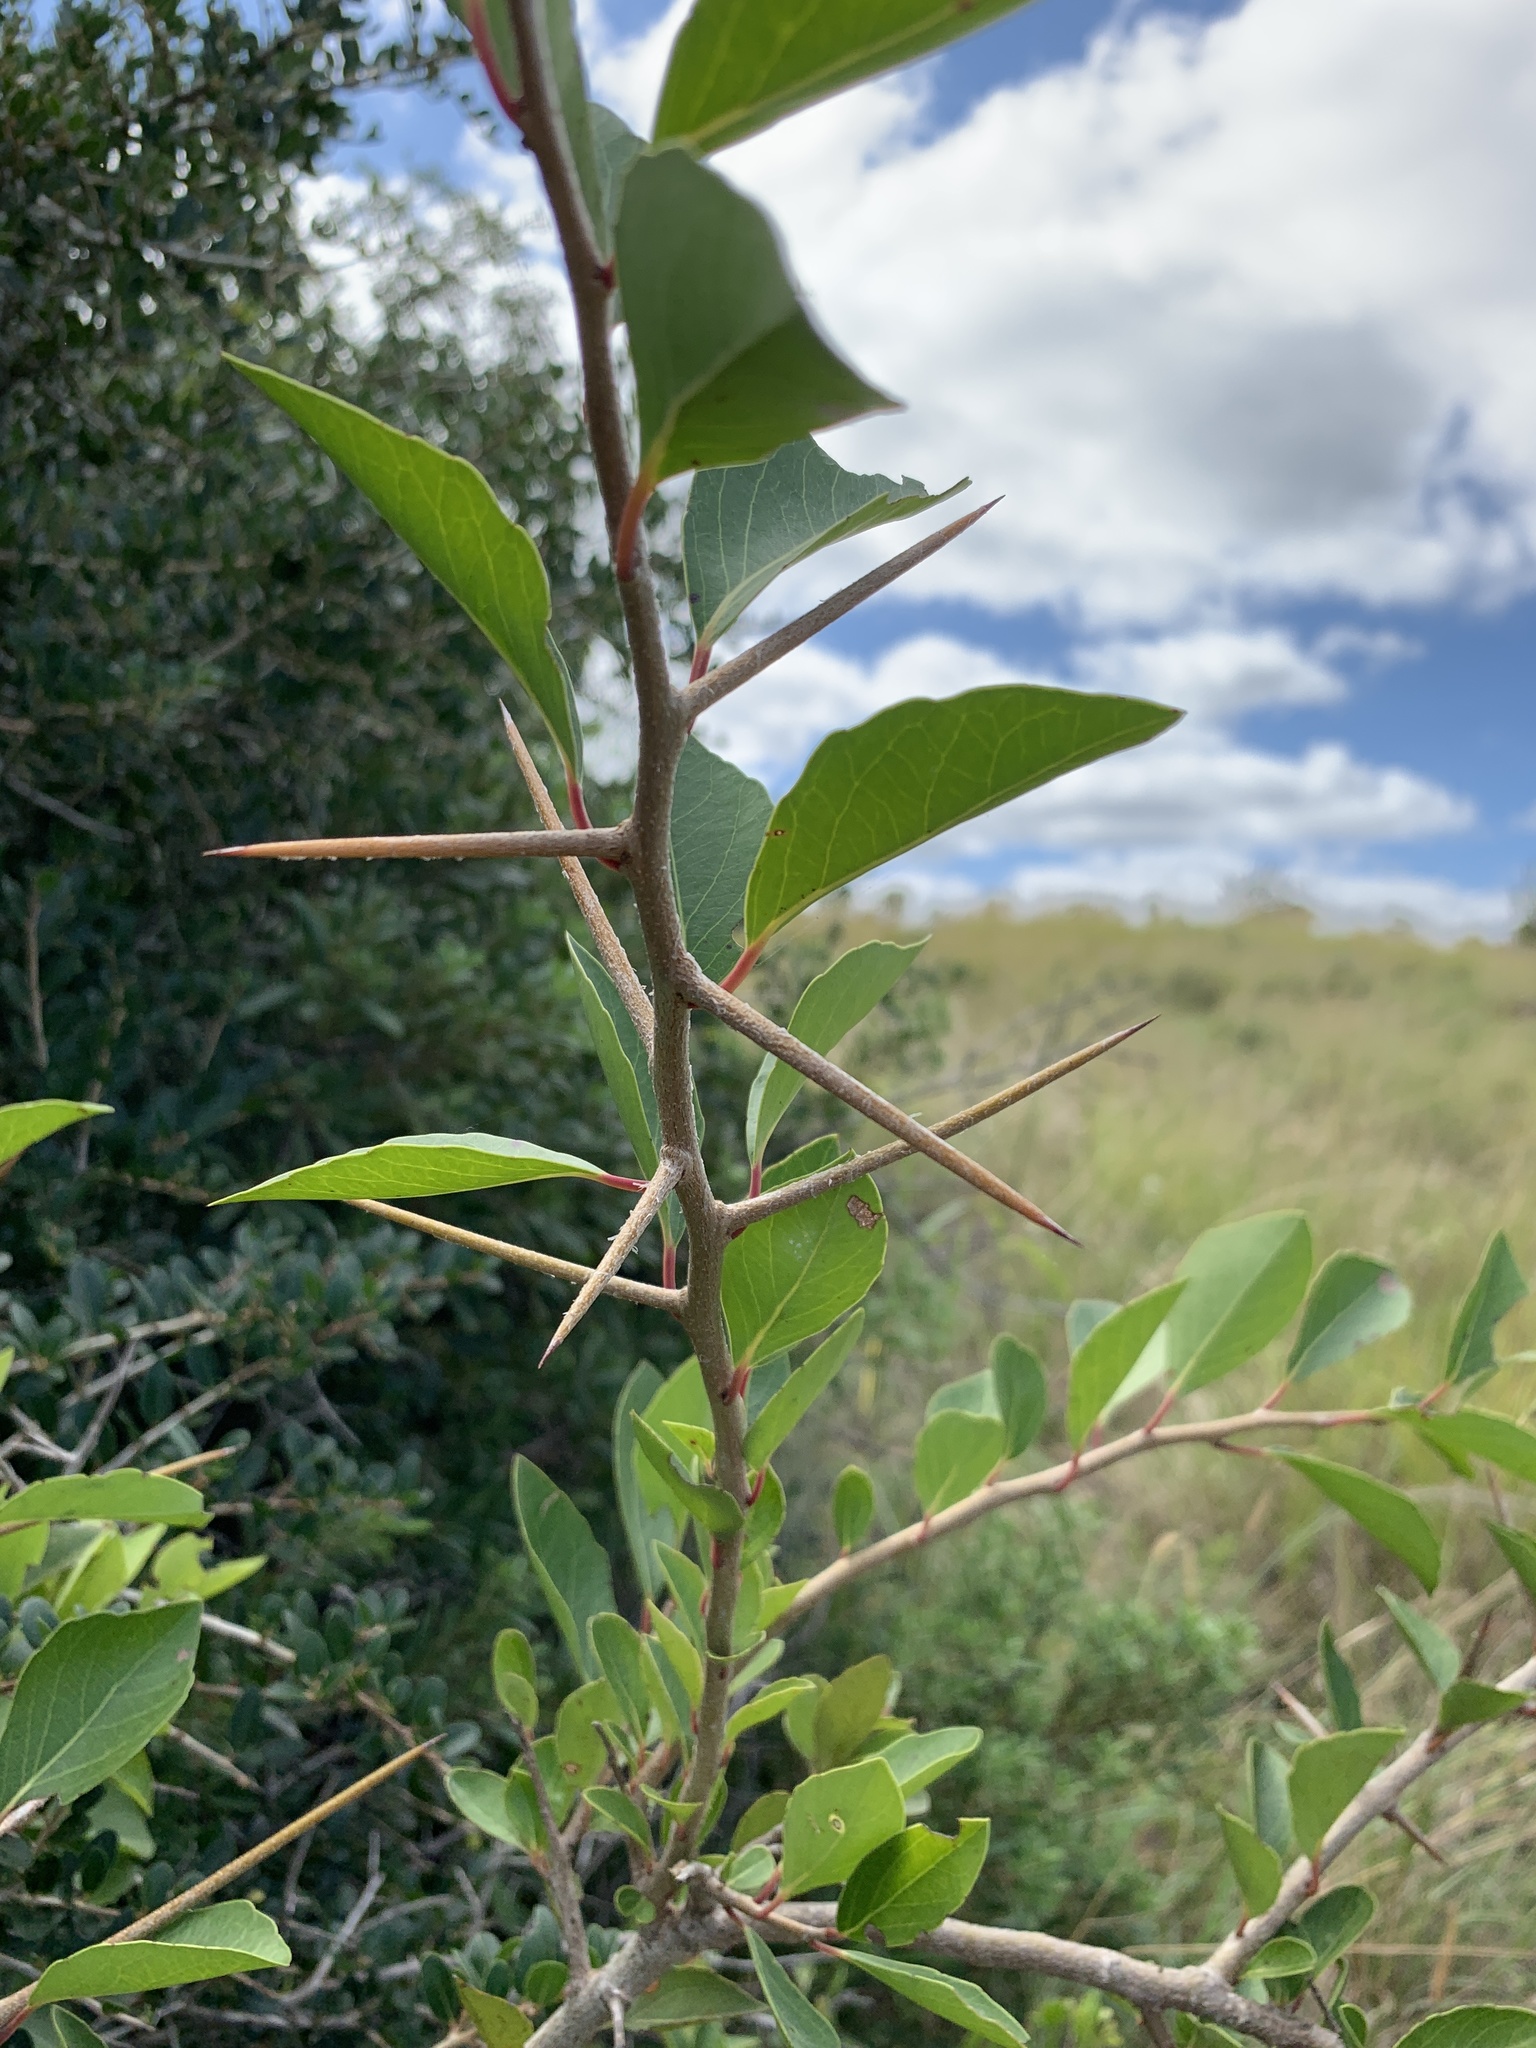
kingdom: Plantae
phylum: Tracheophyta
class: Magnoliopsida
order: Malpighiales
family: Salicaceae
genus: Scolopia
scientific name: Scolopia zeyheri
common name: Thorn pear
